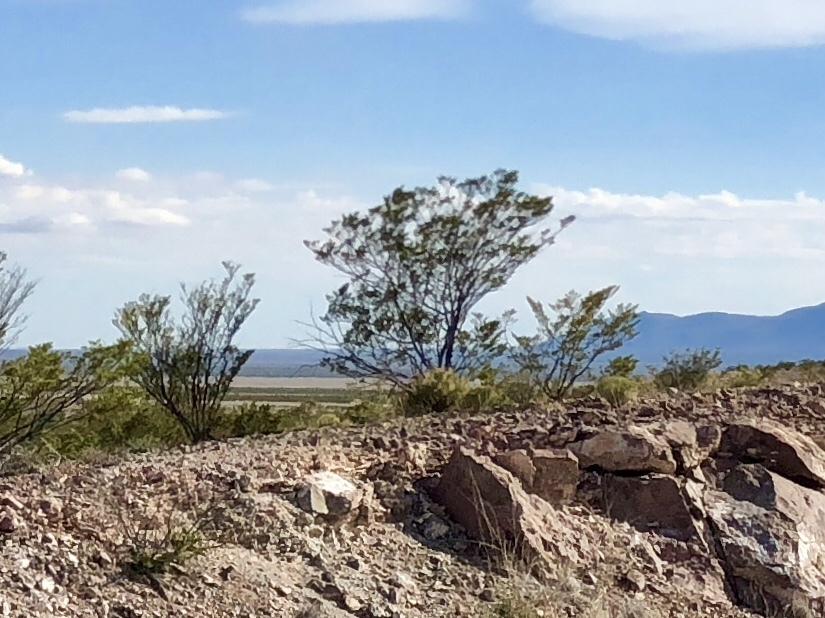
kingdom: Plantae
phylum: Tracheophyta
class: Magnoliopsida
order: Zygophyllales
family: Zygophyllaceae
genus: Larrea
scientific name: Larrea tridentata
